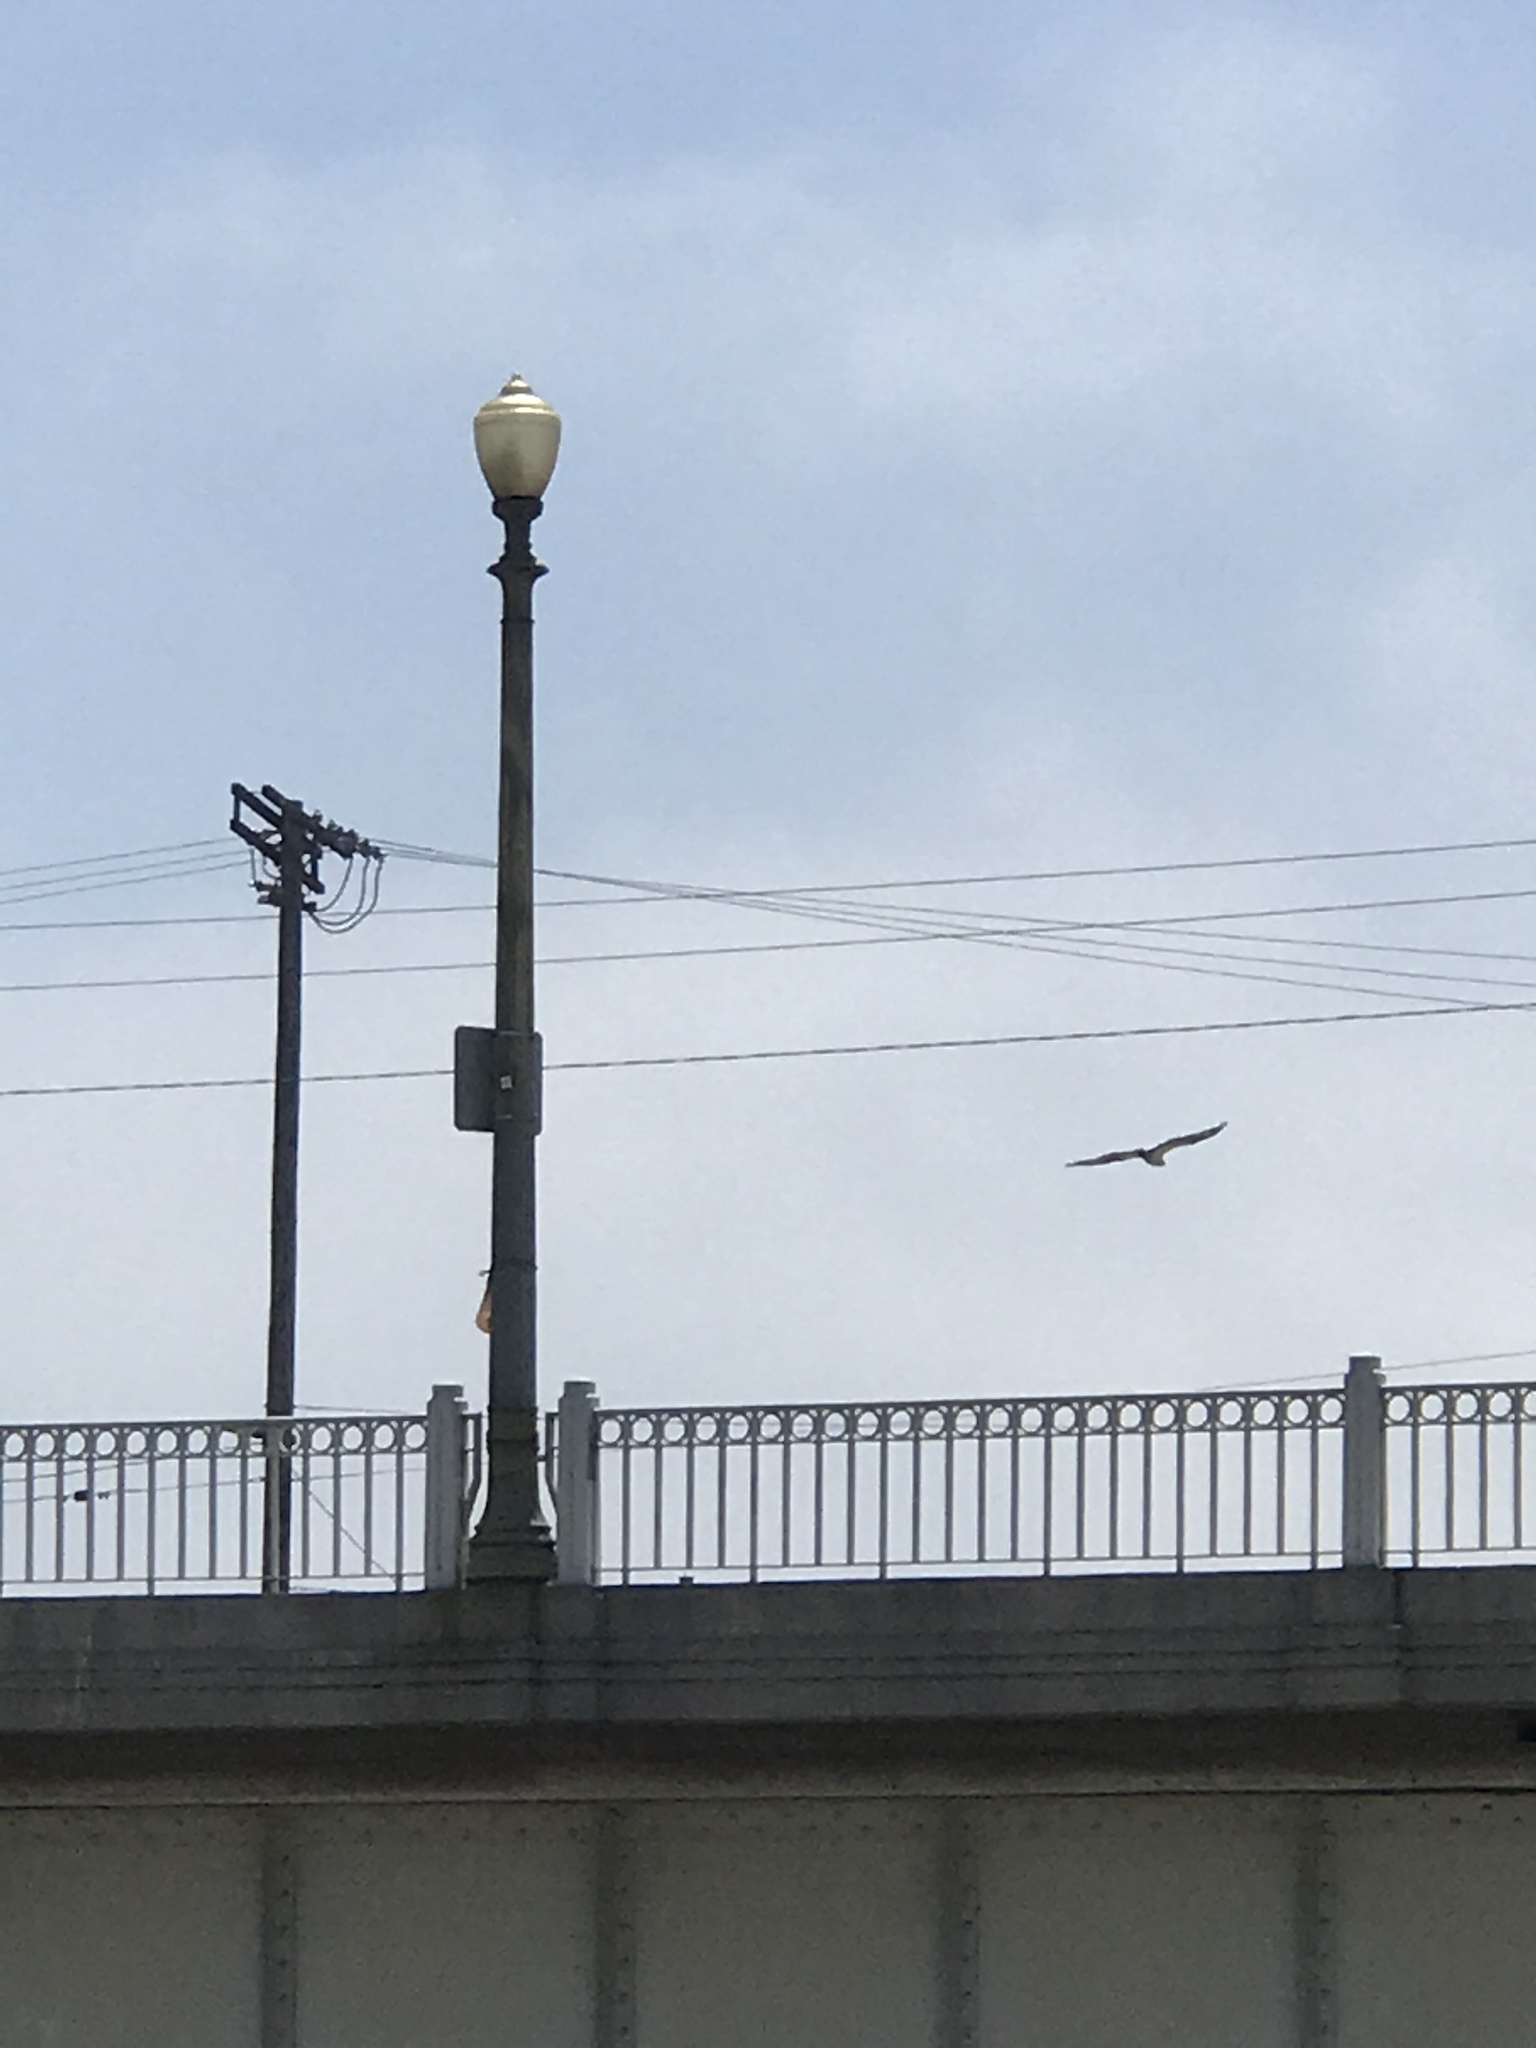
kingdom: Animalia
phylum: Chordata
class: Aves
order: Accipitriformes
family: Pandionidae
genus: Pandion
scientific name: Pandion haliaetus
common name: Osprey
